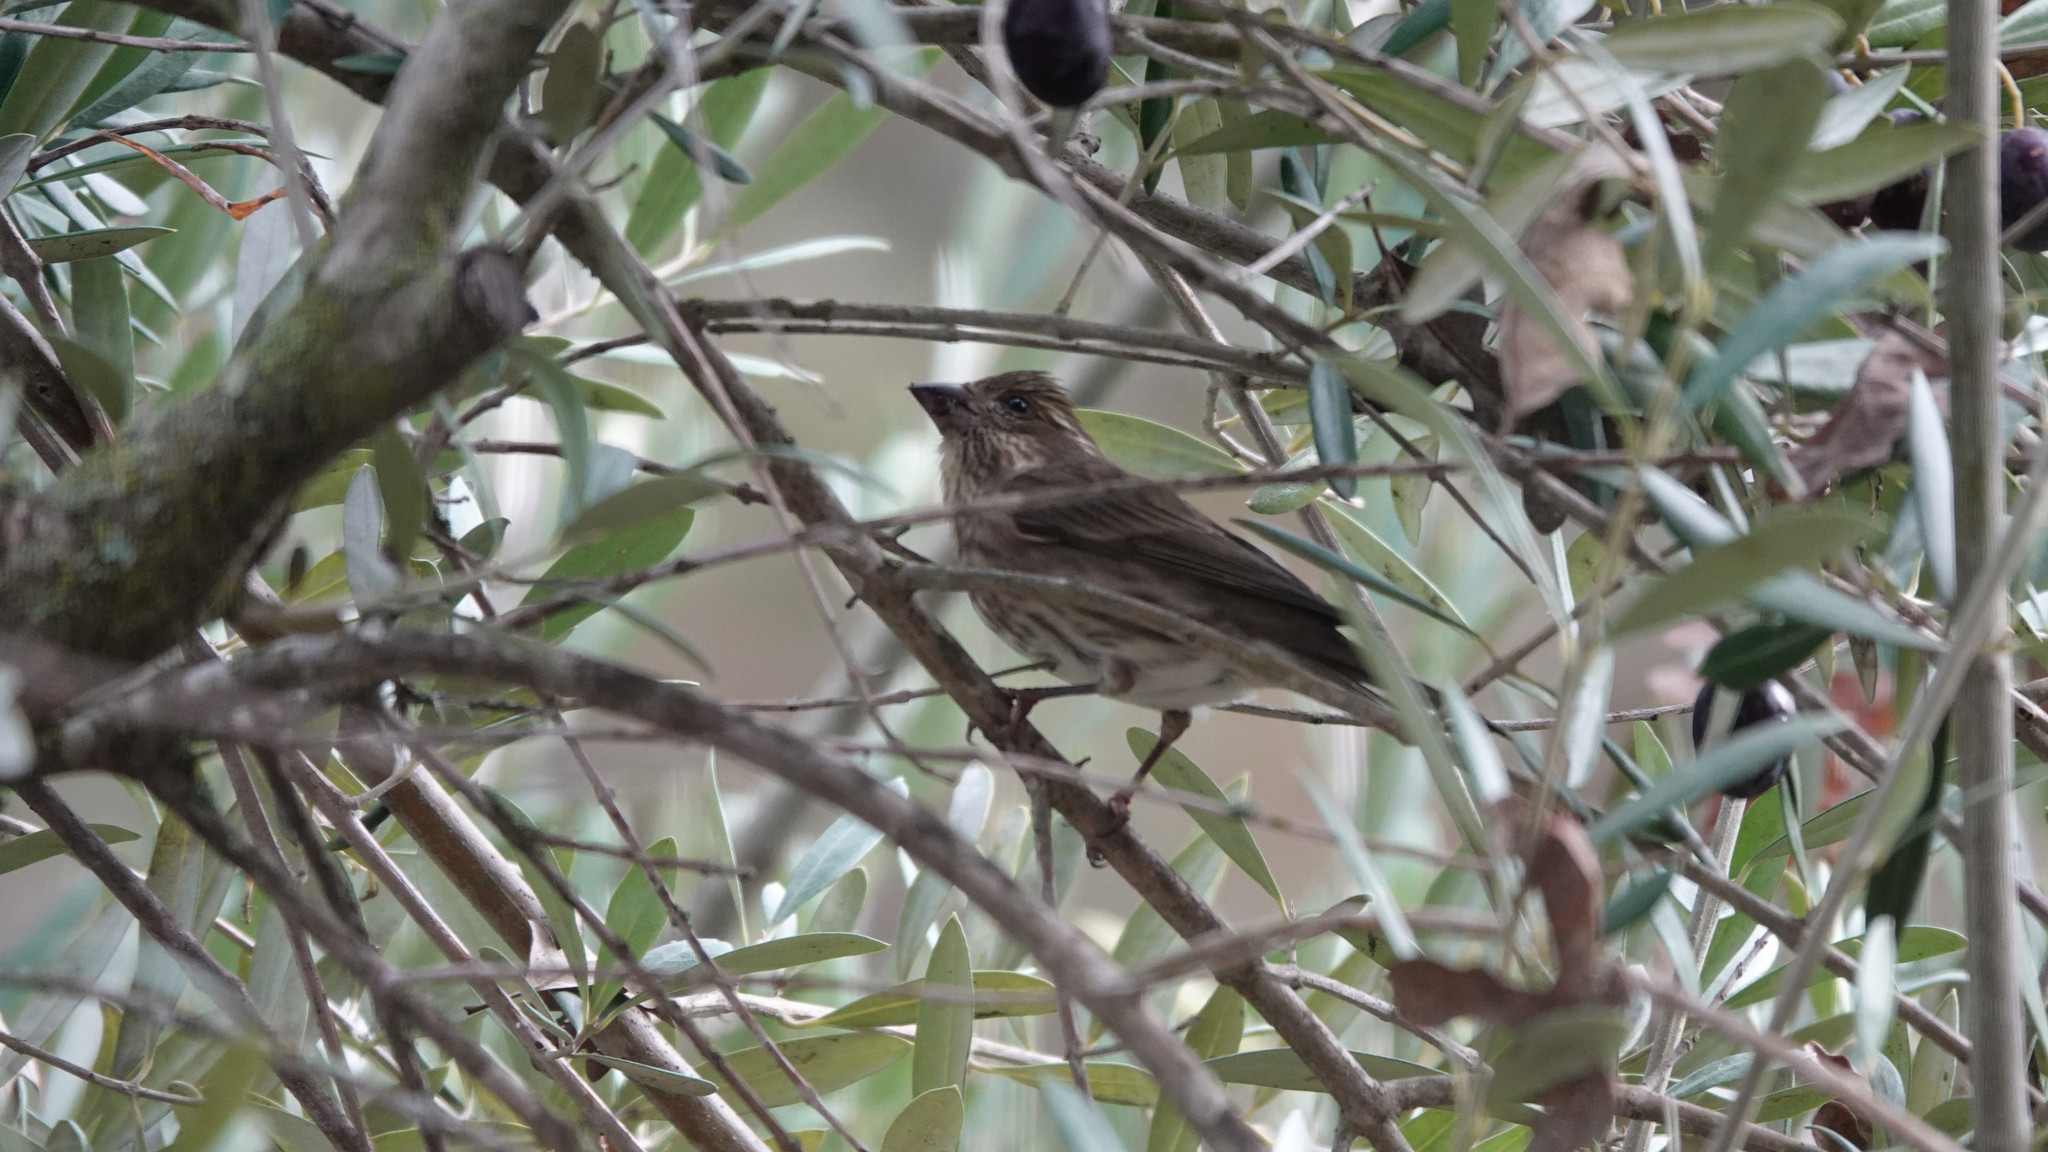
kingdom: Animalia
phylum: Chordata
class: Aves
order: Passeriformes
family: Fringillidae
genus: Haemorhous
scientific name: Haemorhous purpureus
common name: Purple finch
